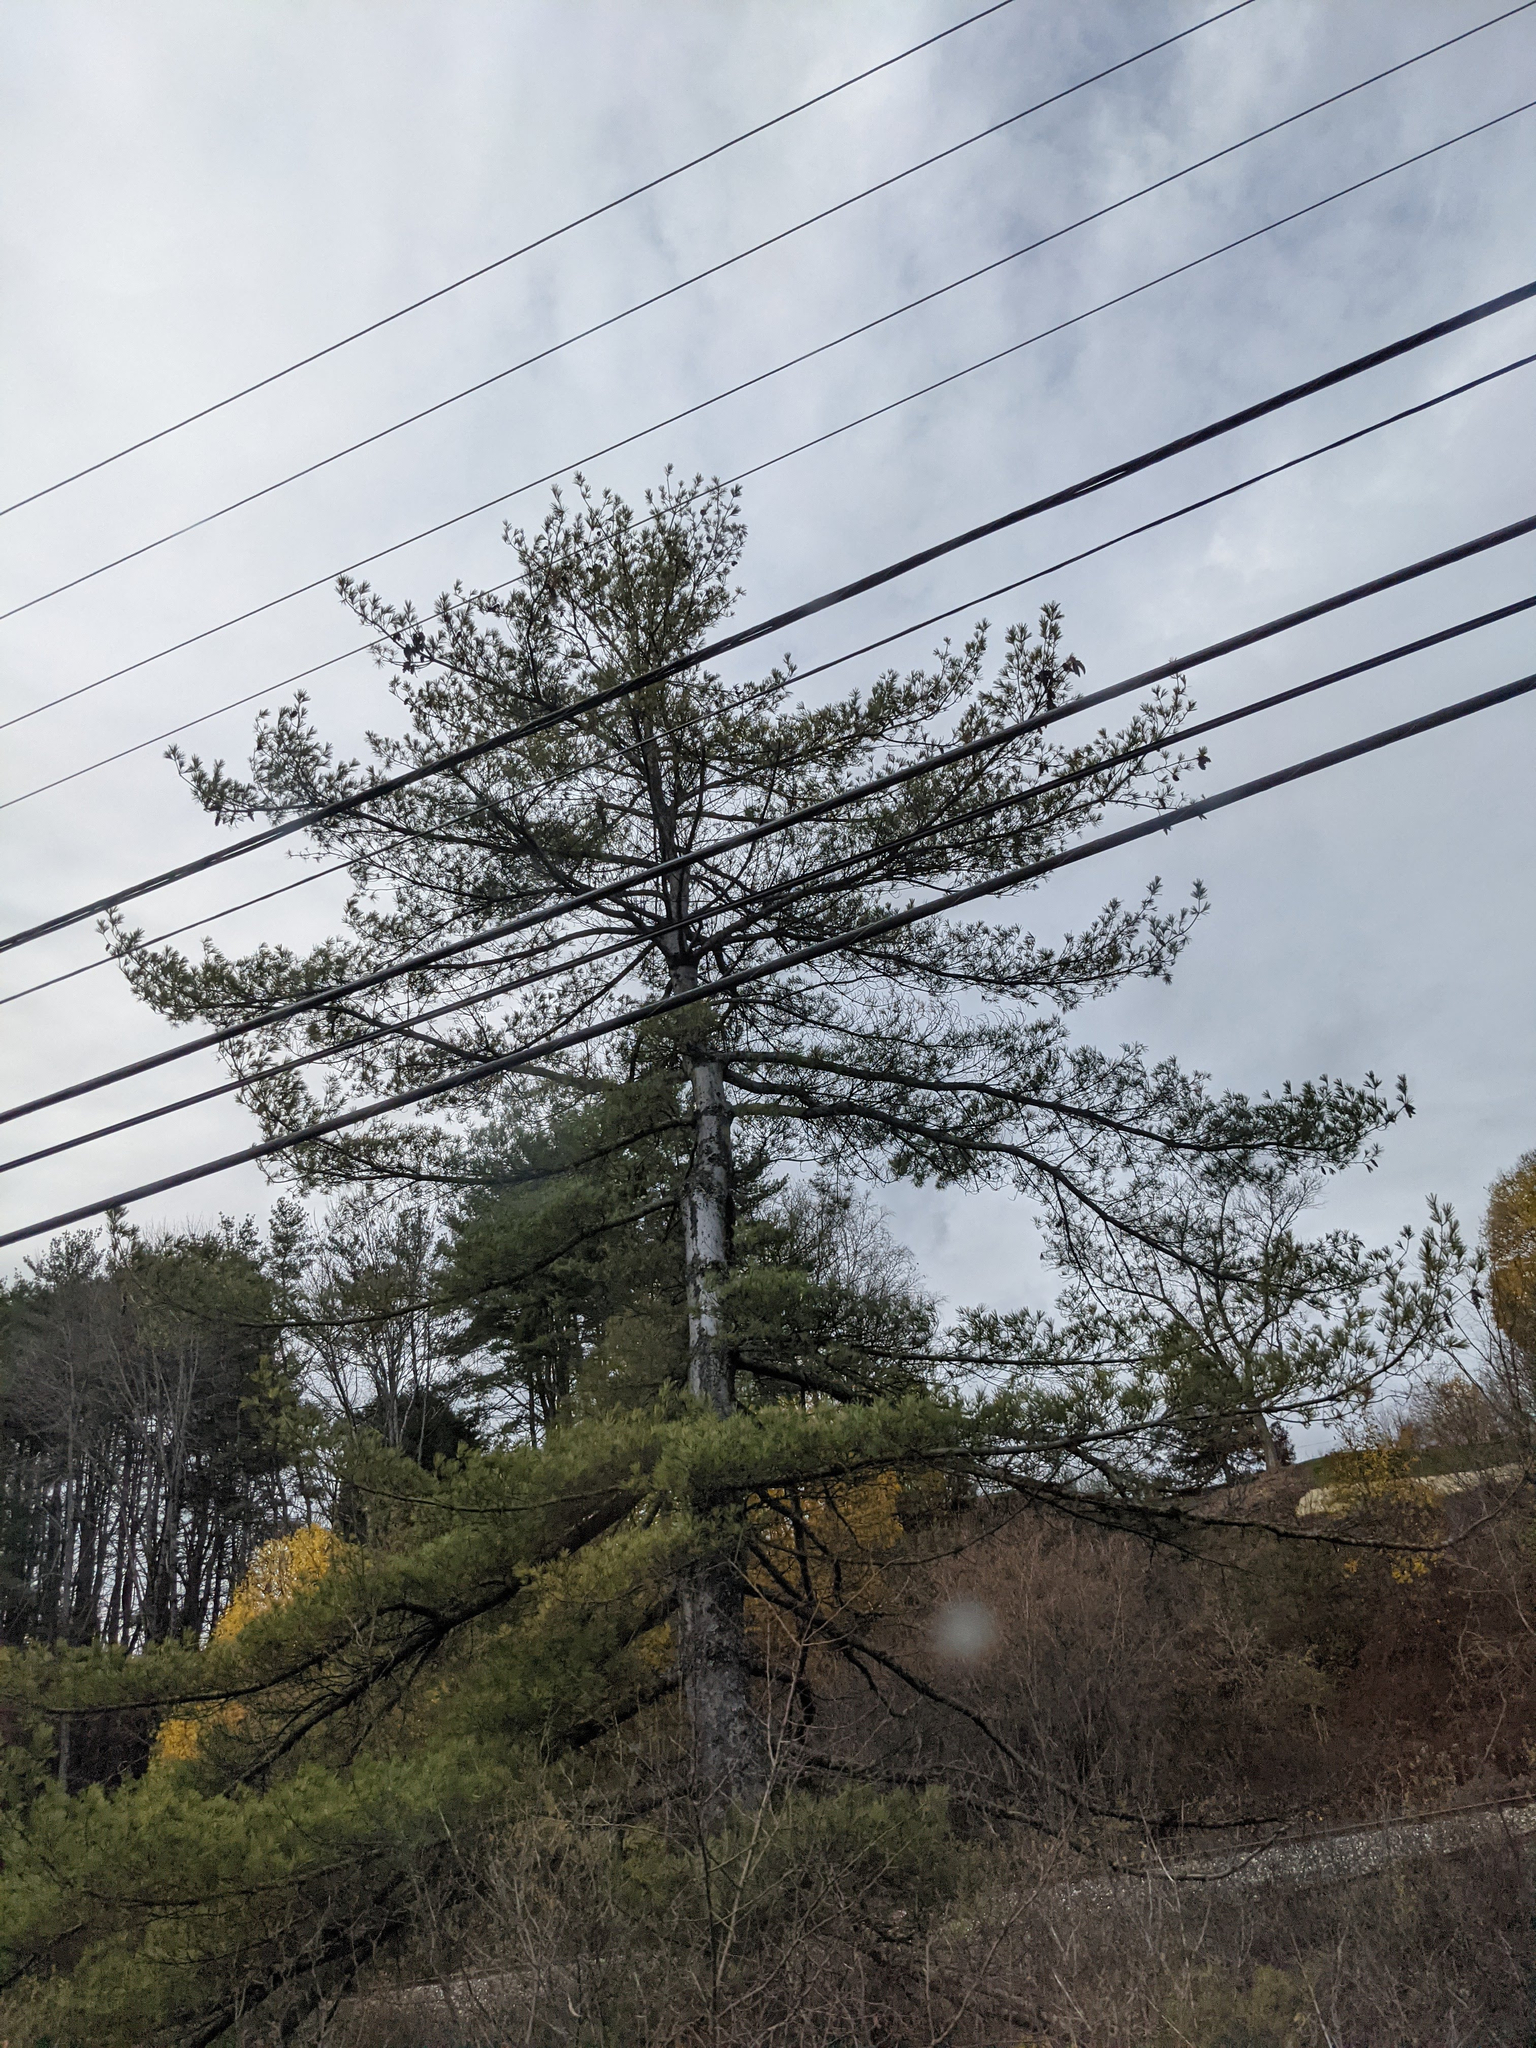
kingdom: Plantae
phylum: Tracheophyta
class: Pinopsida
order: Pinales
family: Pinaceae
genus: Pinus
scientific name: Pinus strobus
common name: Weymouth pine
